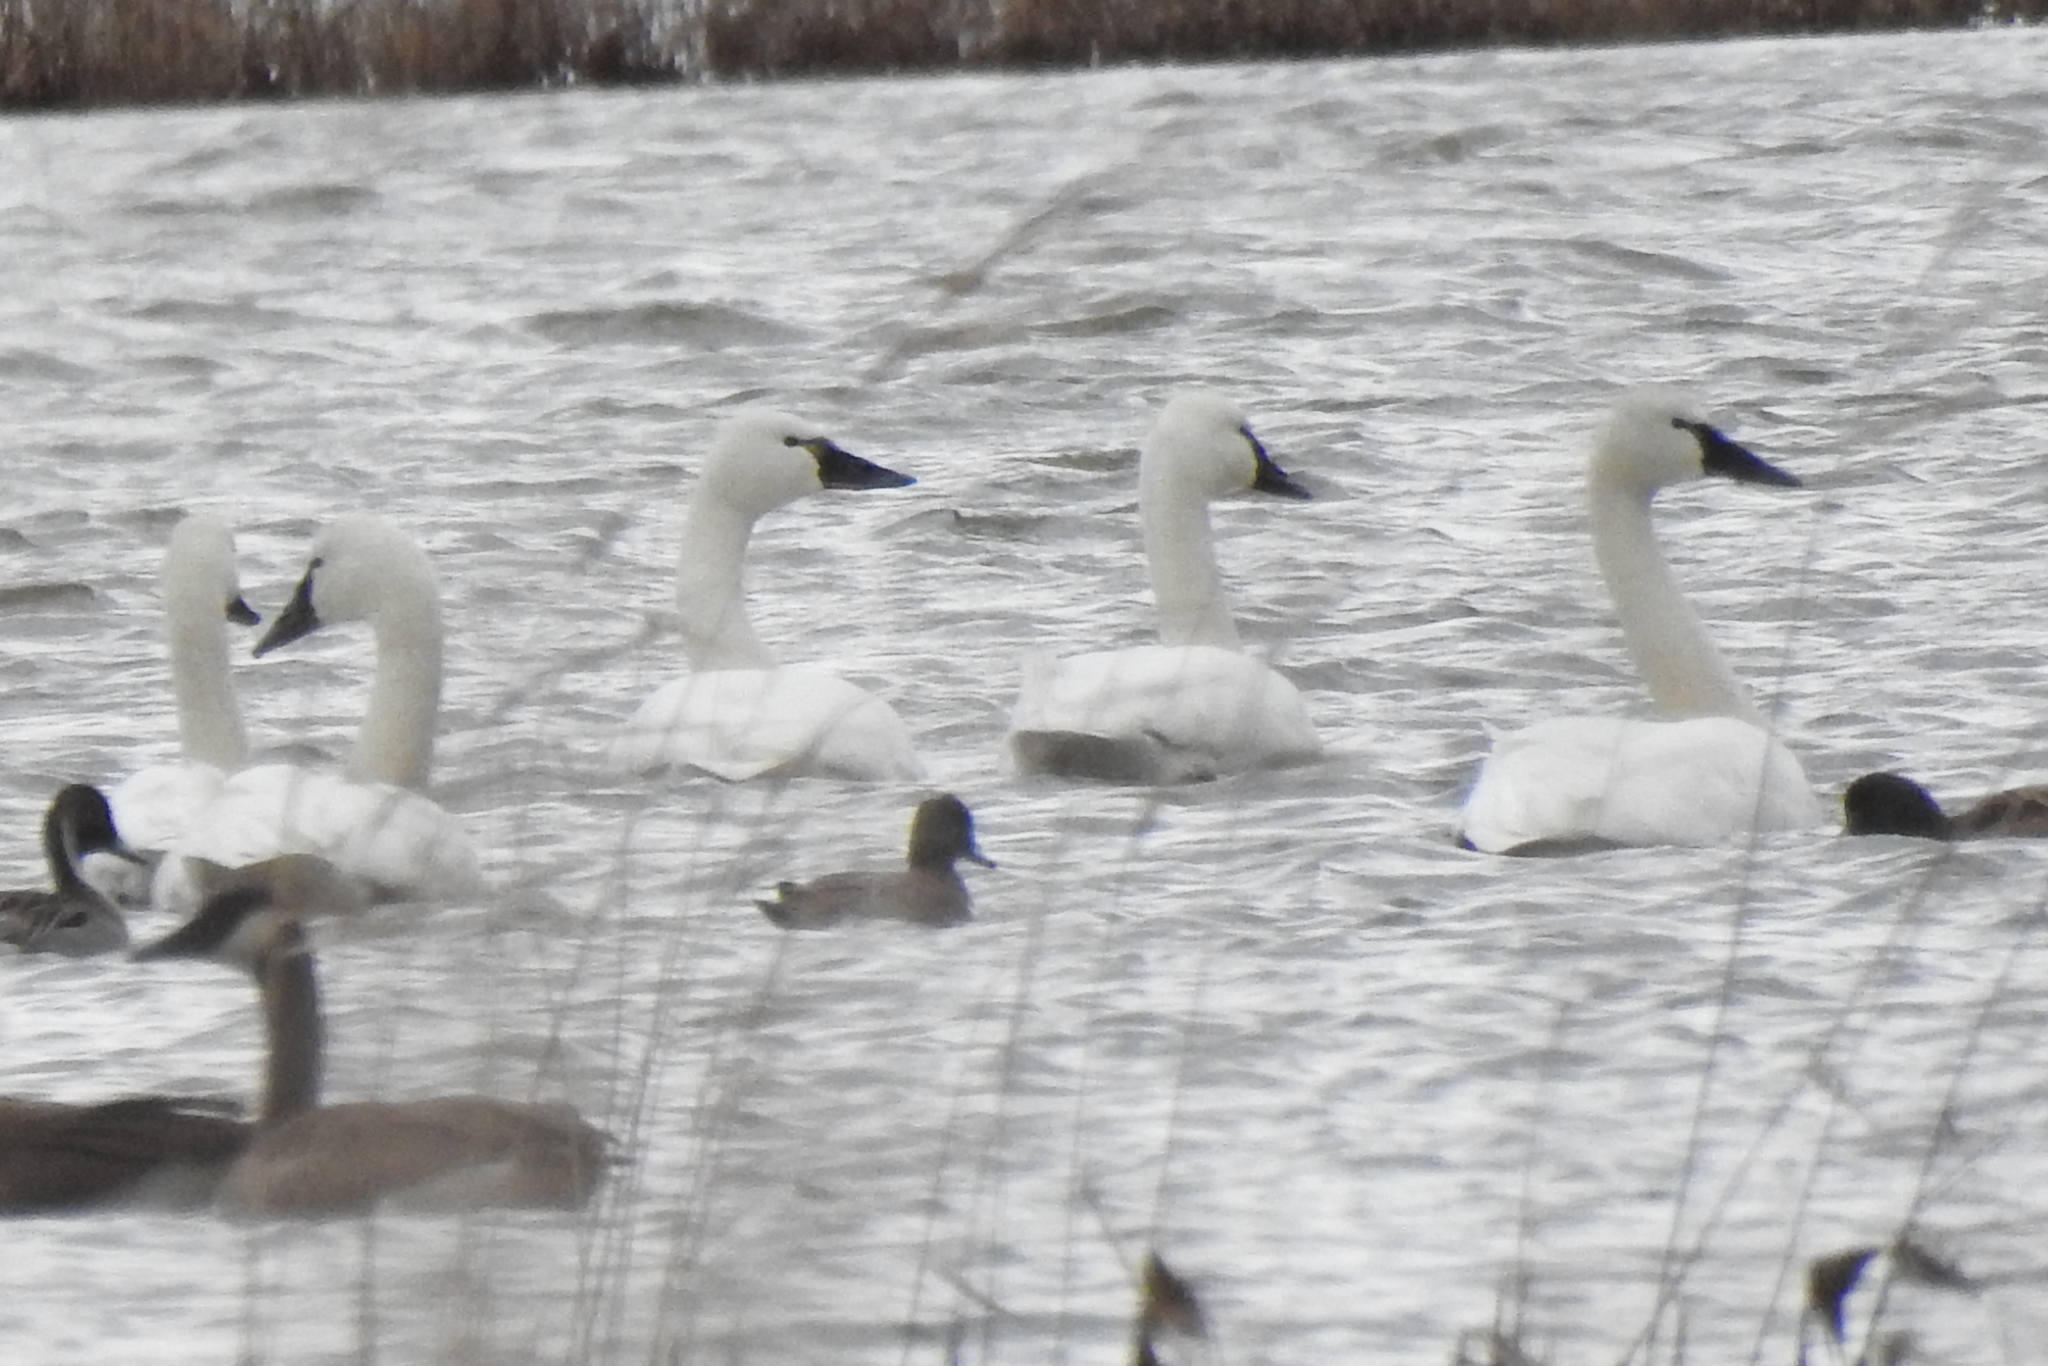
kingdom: Animalia
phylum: Chordata
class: Aves
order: Anseriformes
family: Anatidae
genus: Cygnus
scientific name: Cygnus columbianus
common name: Tundra swan
